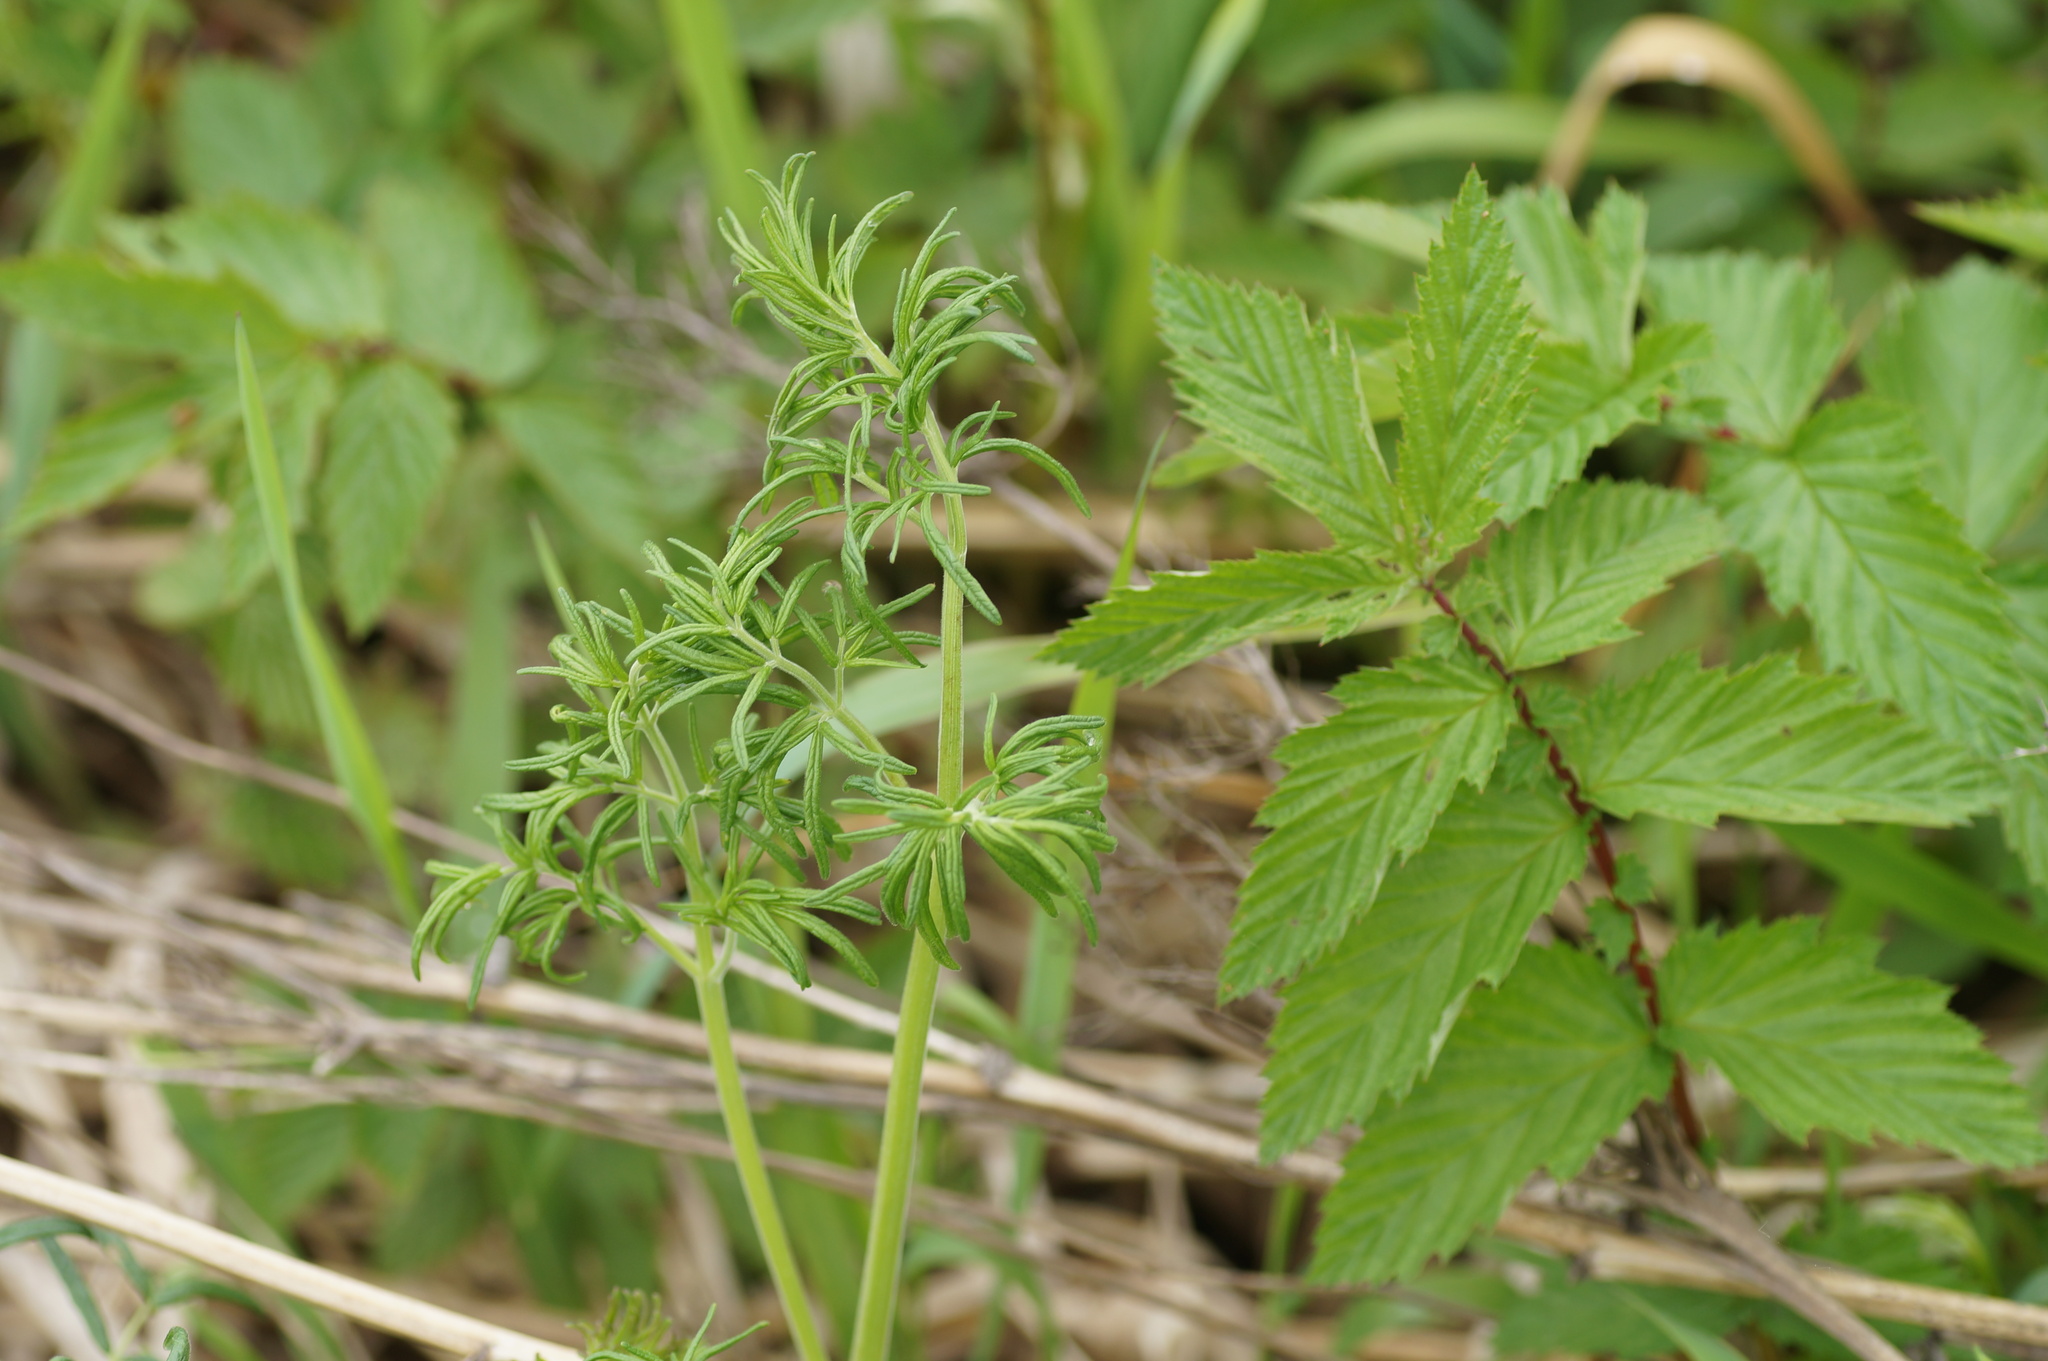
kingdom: Plantae
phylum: Tracheophyta
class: Magnoliopsida
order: Ranunculales
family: Ranunculaceae
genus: Thalictrum
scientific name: Thalictrum lucidum
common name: Shining meadow-rue
